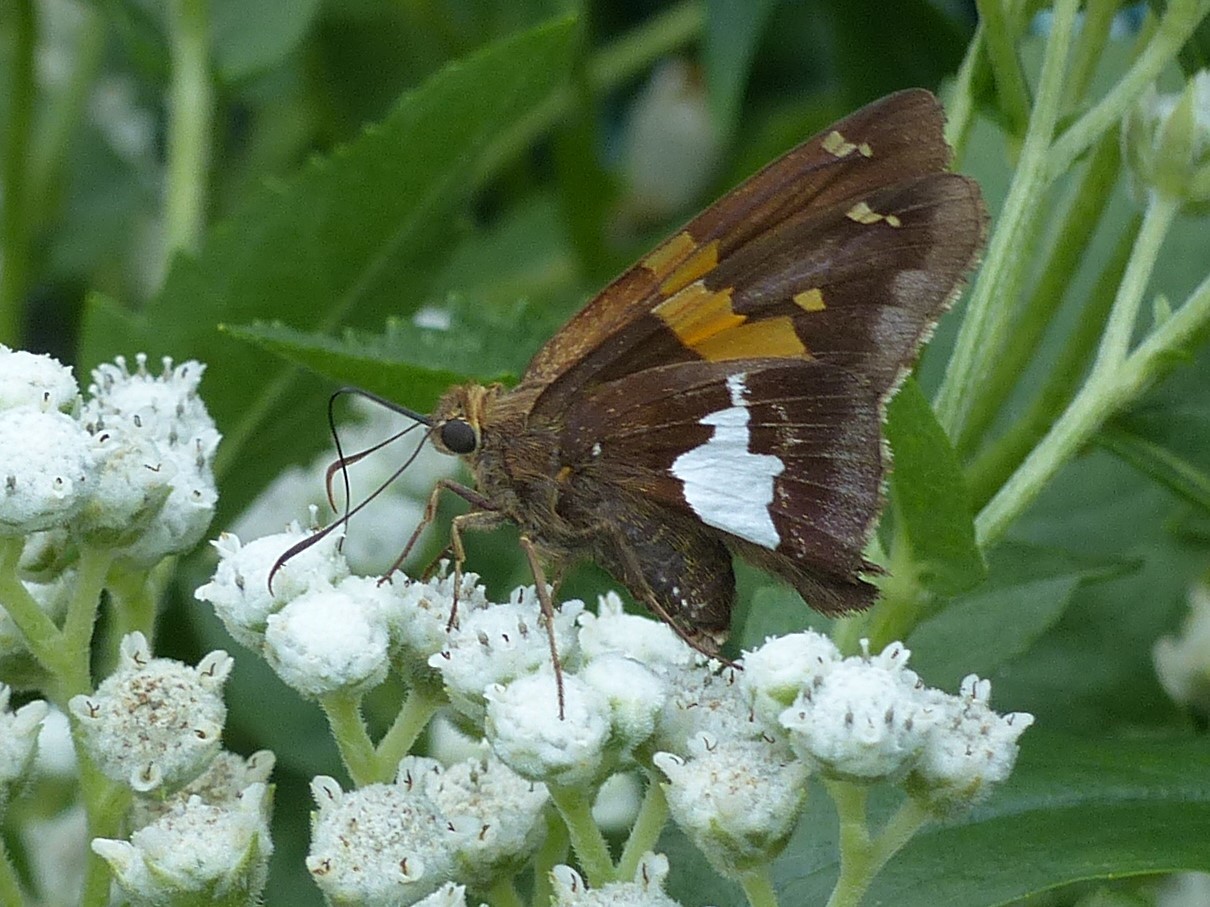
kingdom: Animalia
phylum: Arthropoda
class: Insecta
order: Lepidoptera
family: Hesperiidae
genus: Epargyreus
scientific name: Epargyreus clarus
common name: Silver-spotted skipper
